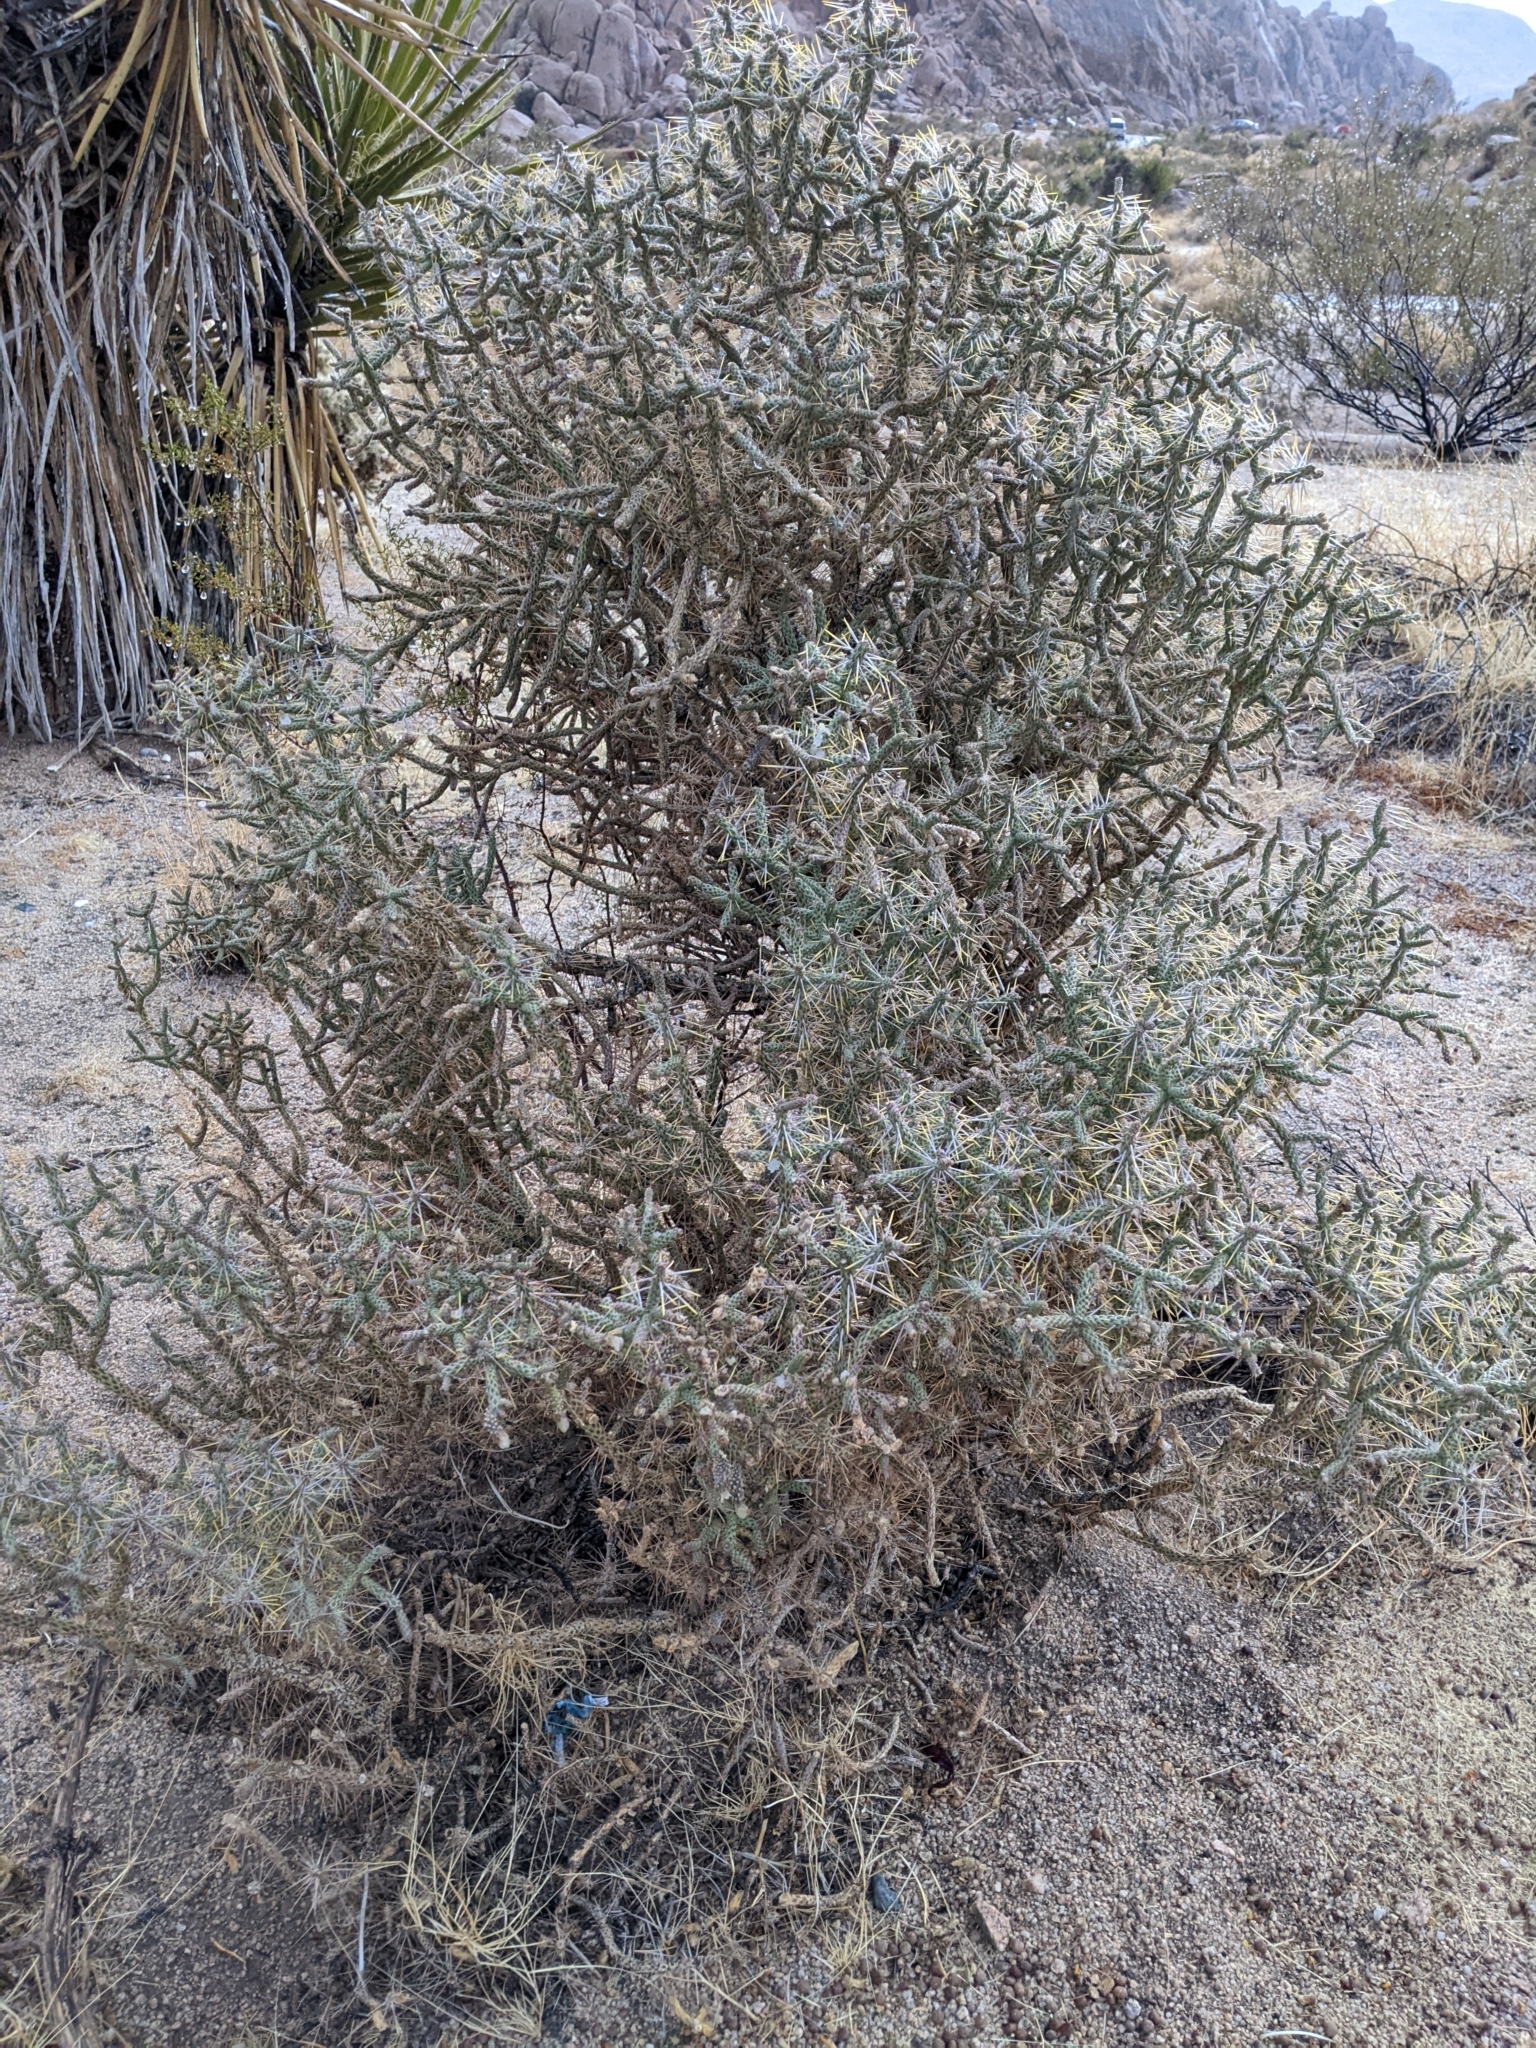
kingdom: Plantae
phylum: Tracheophyta
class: Magnoliopsida
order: Caryophyllales
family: Cactaceae
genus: Cylindropuntia
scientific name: Cylindropuntia ramosissima
